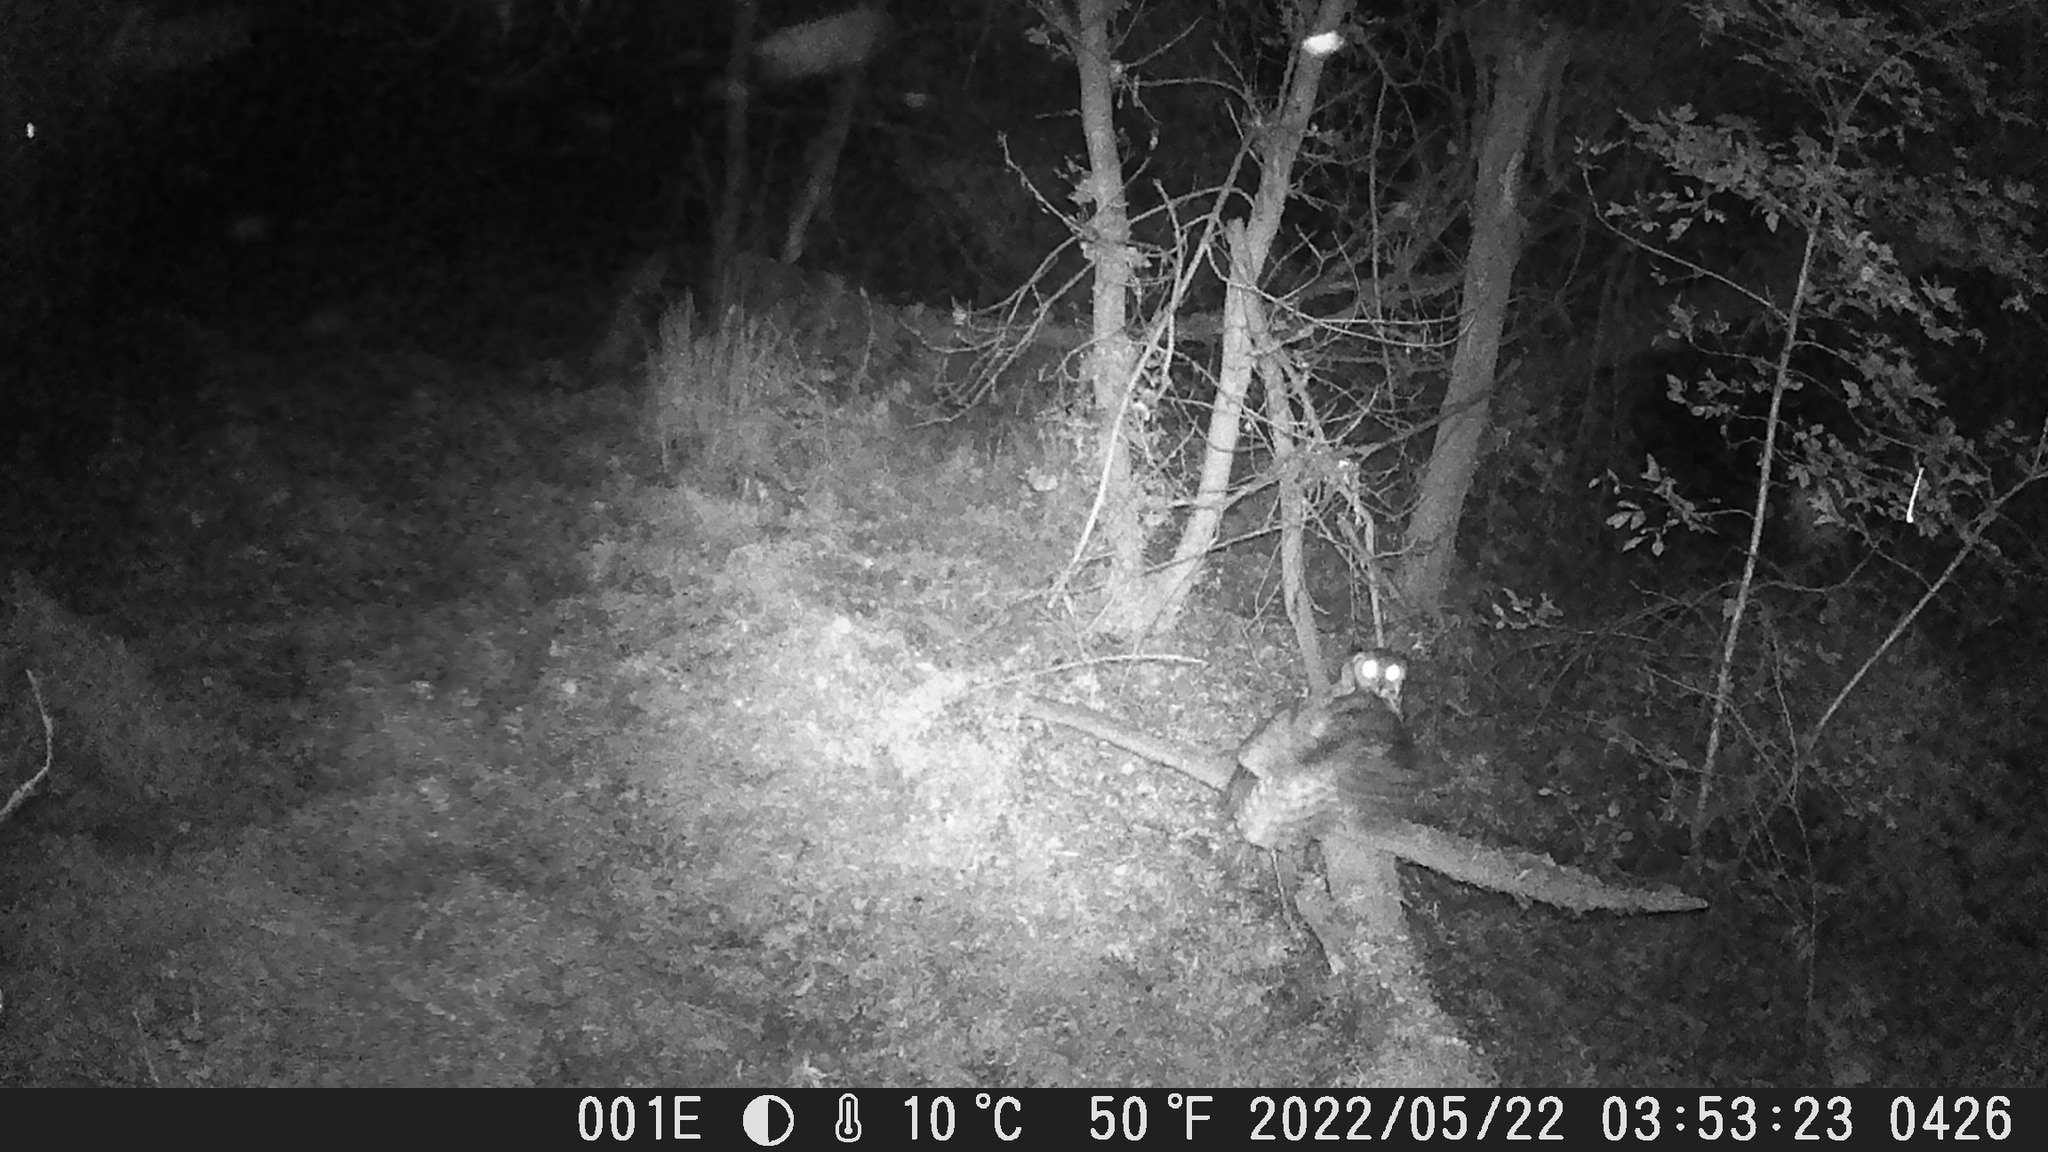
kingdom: Animalia
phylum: Chordata
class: Aves
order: Strigiformes
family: Strigidae
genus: Bubo
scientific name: Bubo virginianus
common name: Great horned owl
